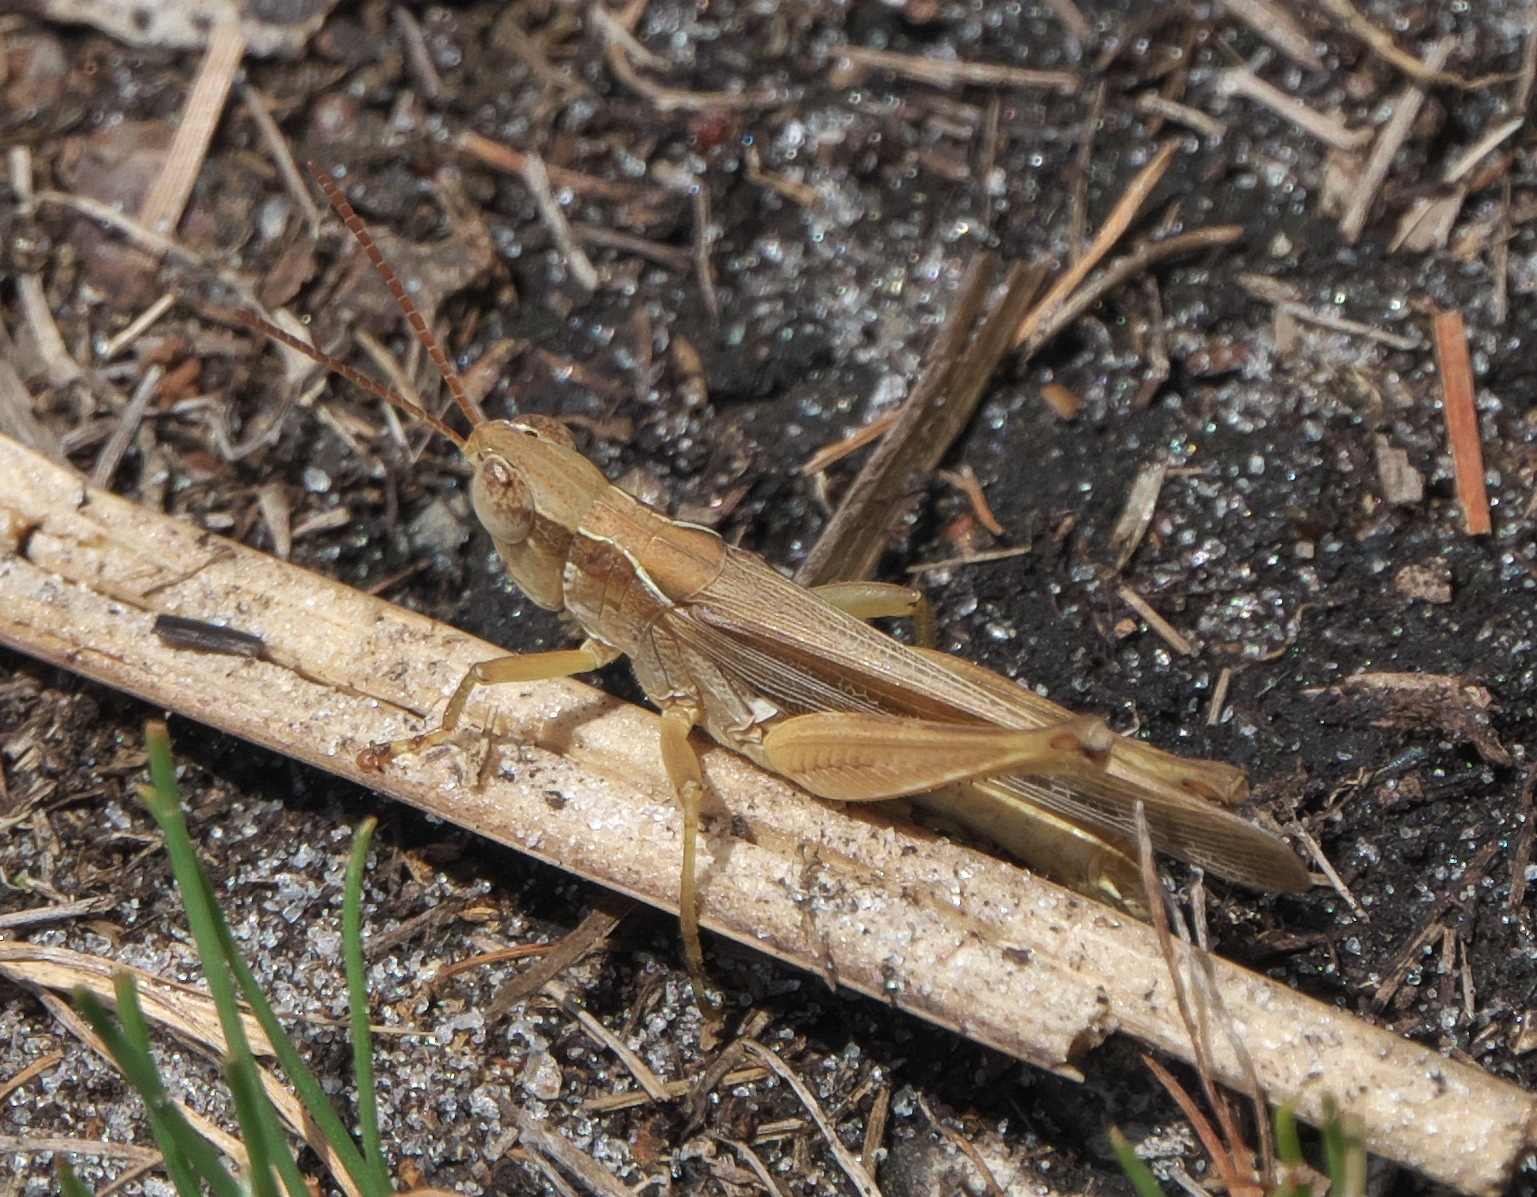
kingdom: Animalia
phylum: Arthropoda
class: Insecta
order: Orthoptera
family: Acrididae
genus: Orphulella
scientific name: Orphulella pelidna
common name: Spotted-wing grasshopper
